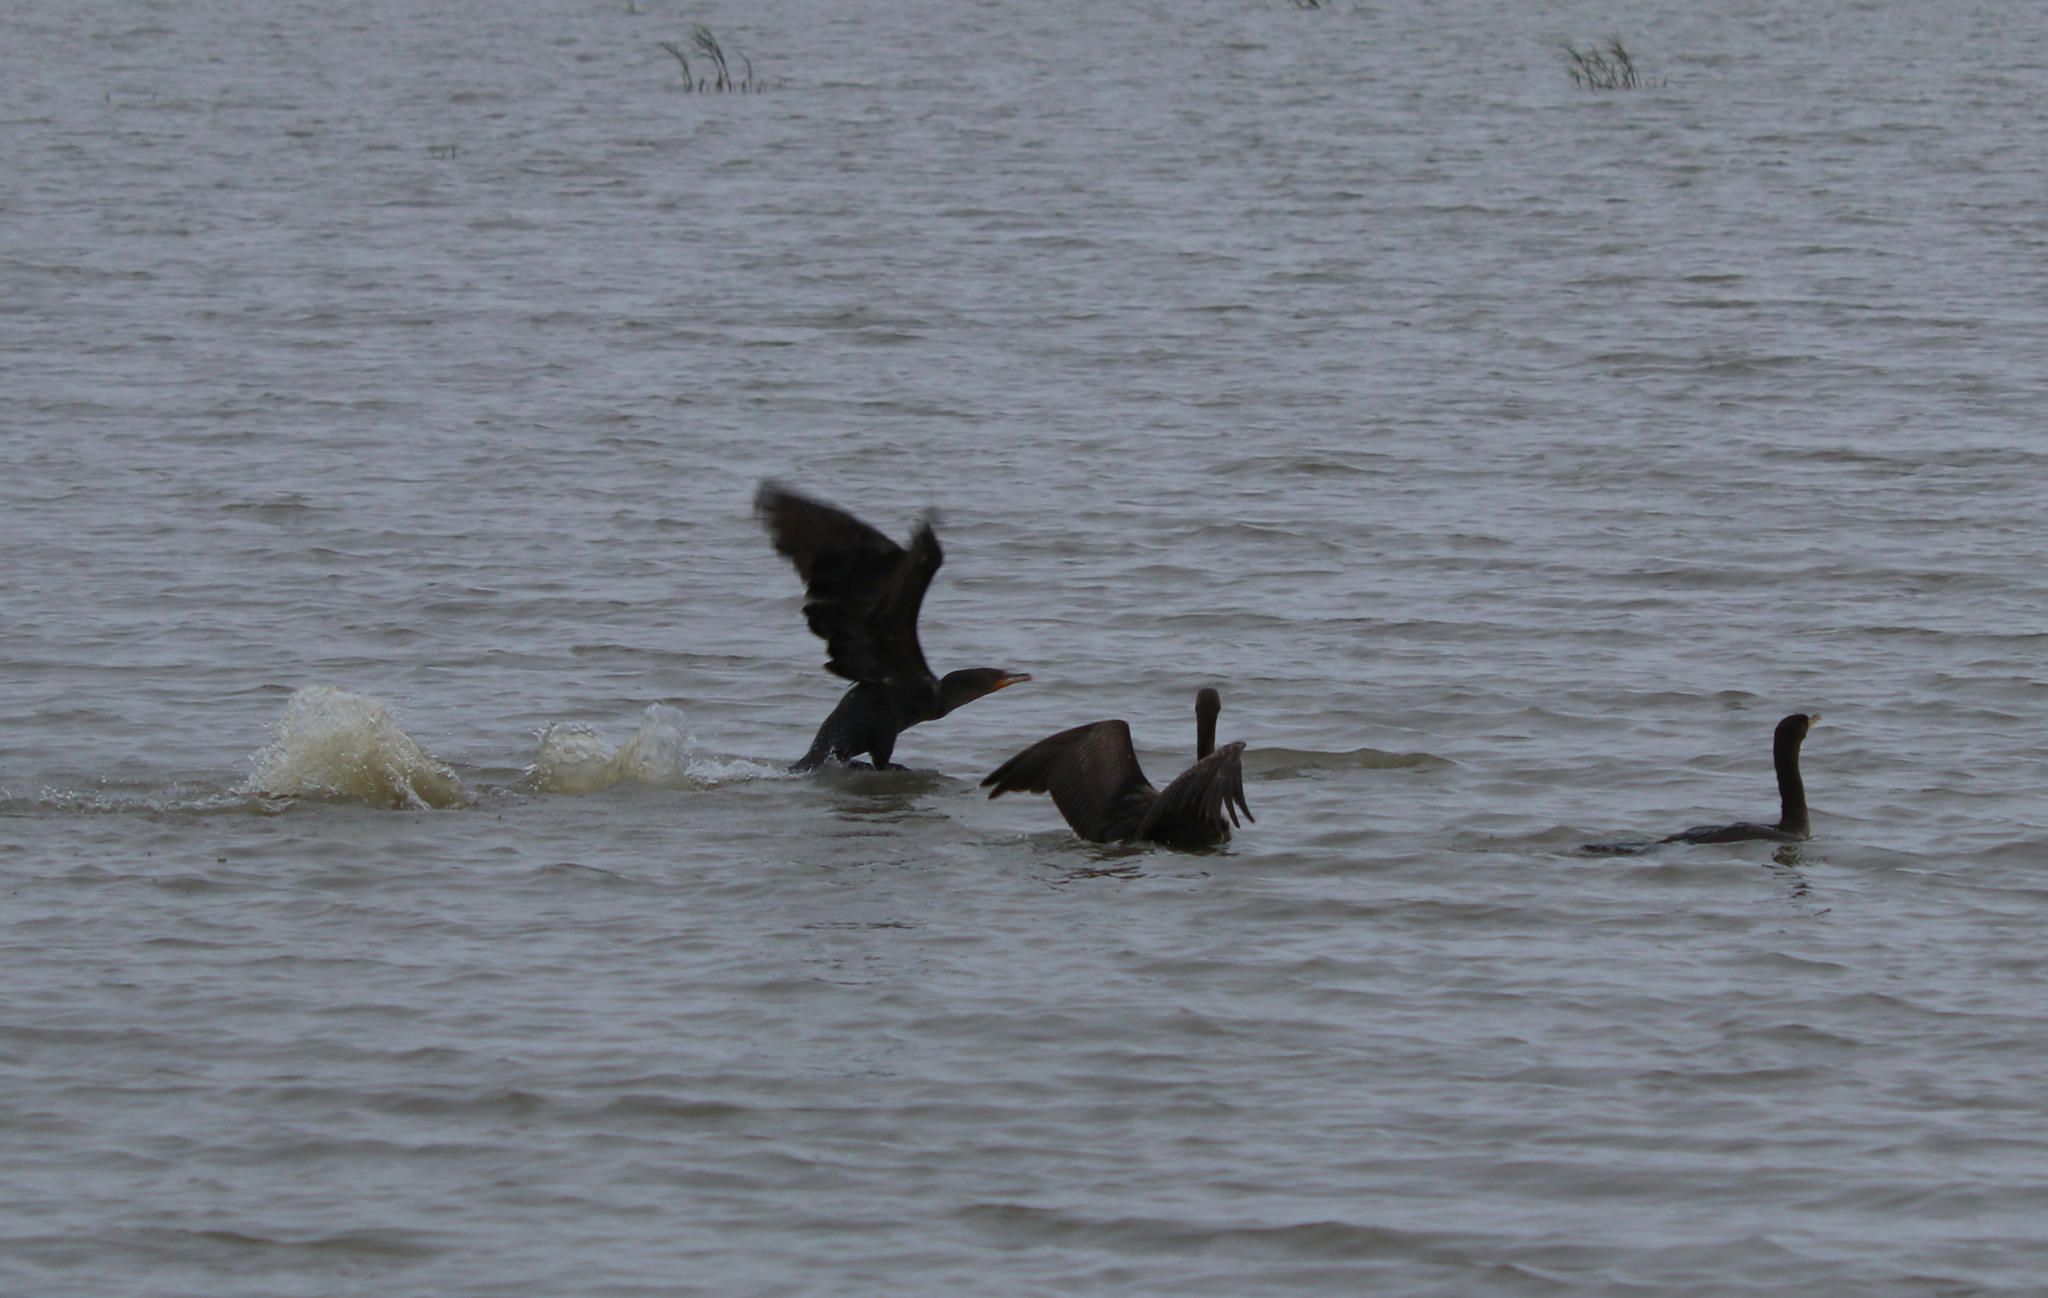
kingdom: Animalia
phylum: Chordata
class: Aves
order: Suliformes
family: Phalacrocoracidae
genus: Phalacrocorax
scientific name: Phalacrocorax auritus
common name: Double-crested cormorant
